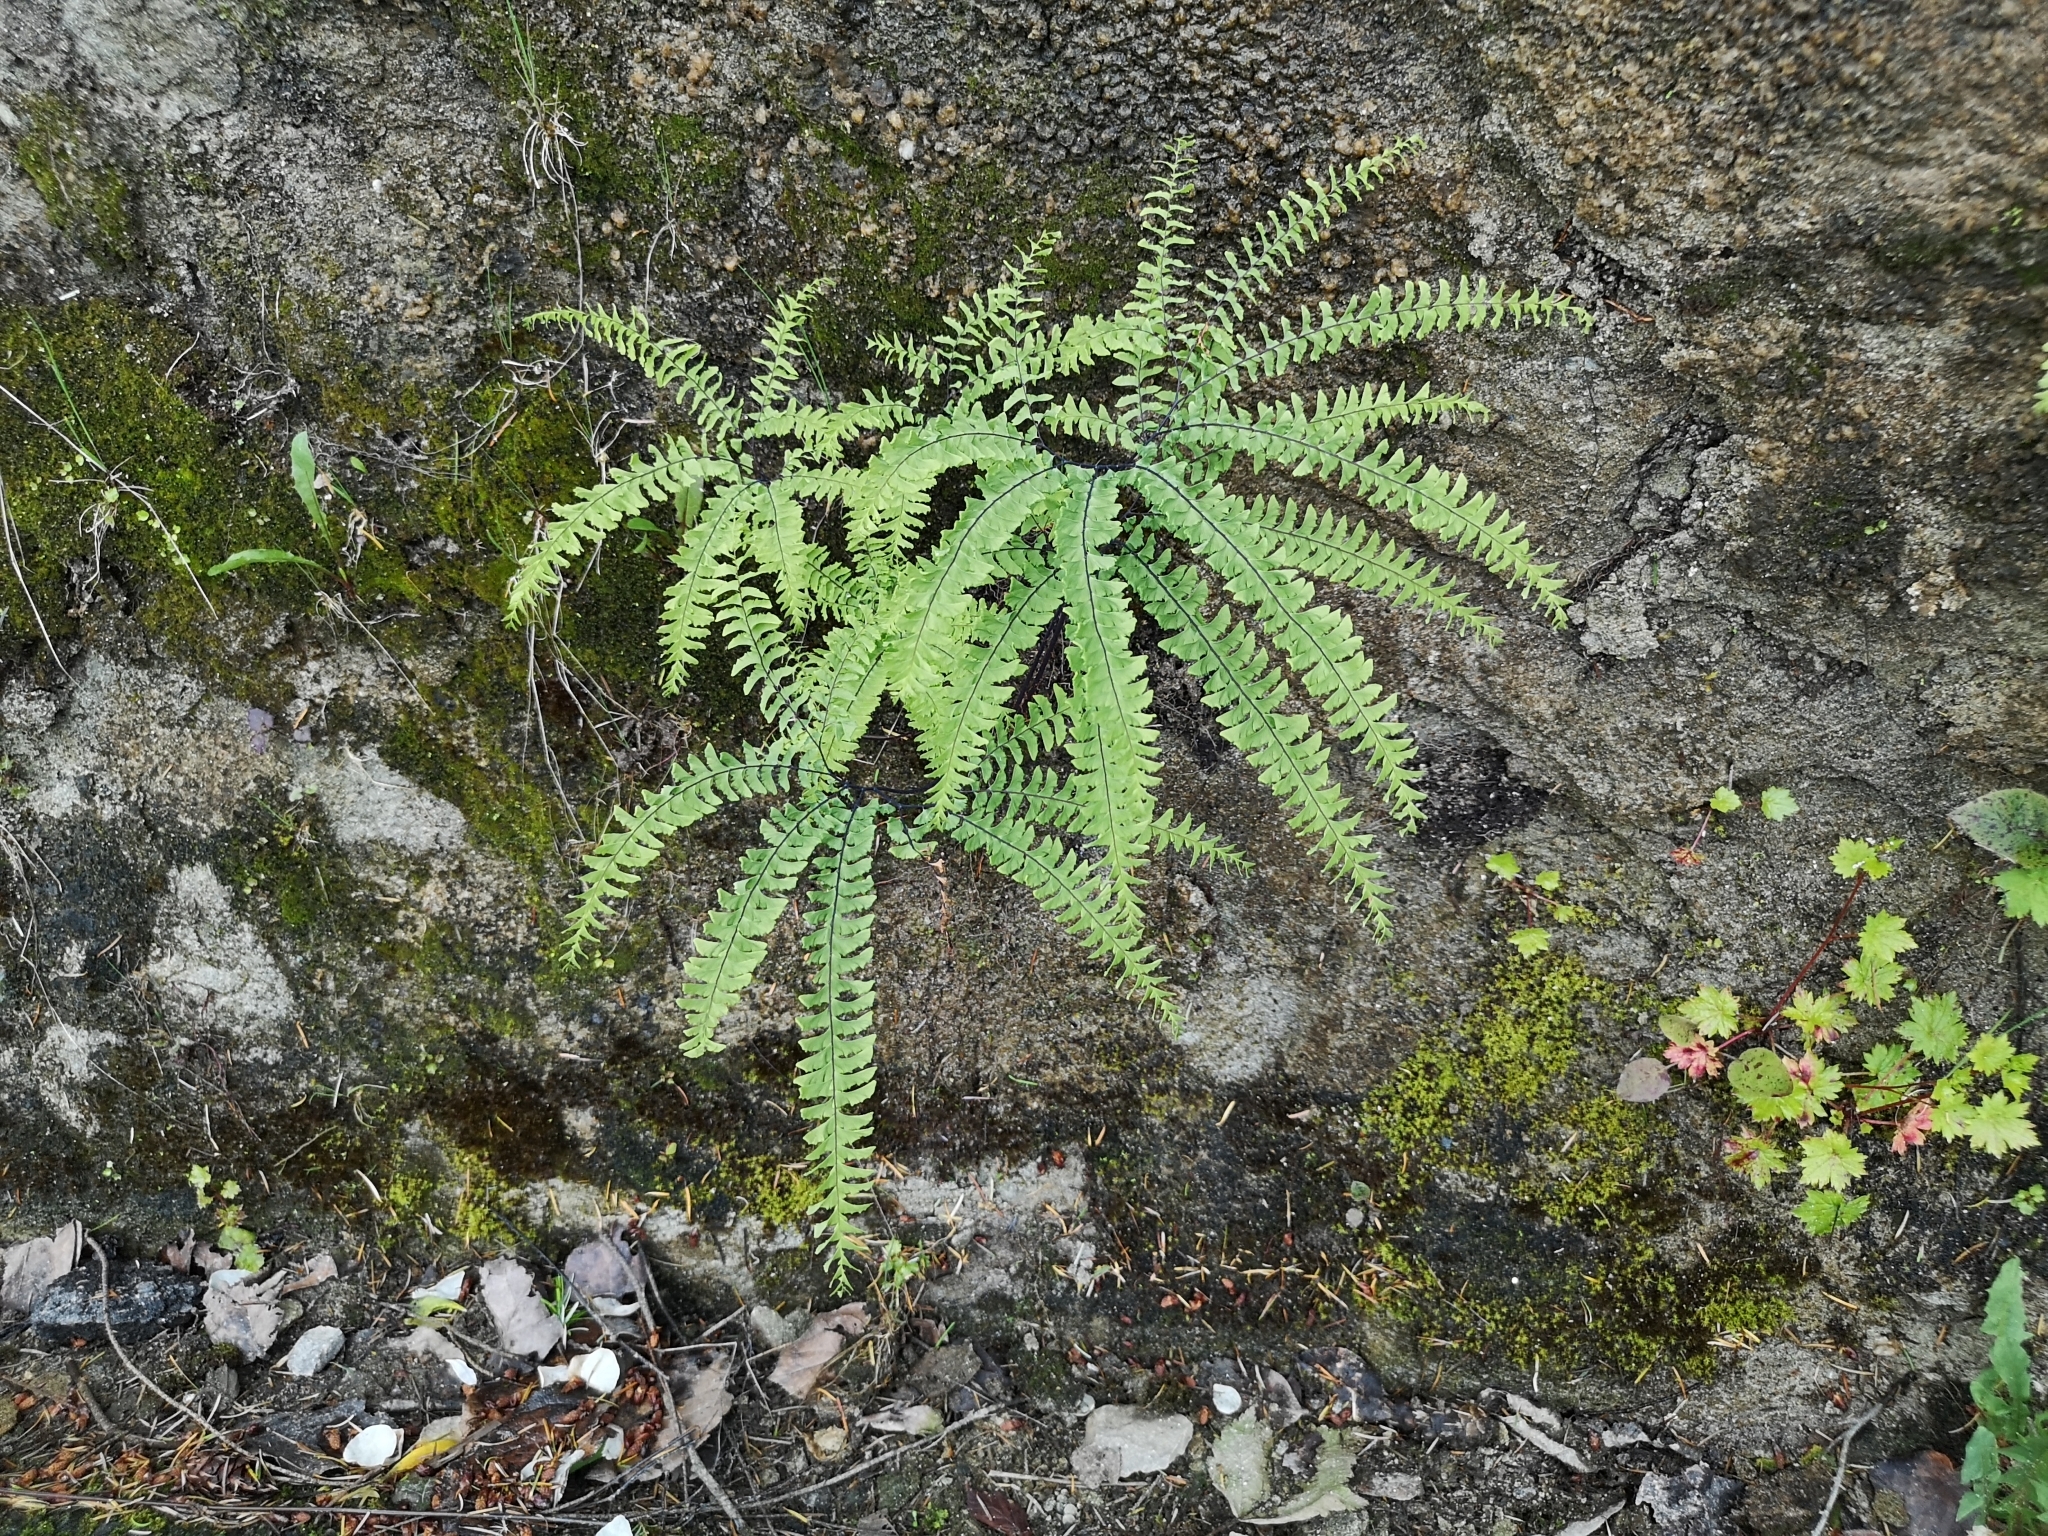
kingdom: Plantae
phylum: Tracheophyta
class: Polypodiopsida
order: Polypodiales
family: Pteridaceae
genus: Adiantum
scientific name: Adiantum aleuticum
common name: Aleutian maidenhair fern
